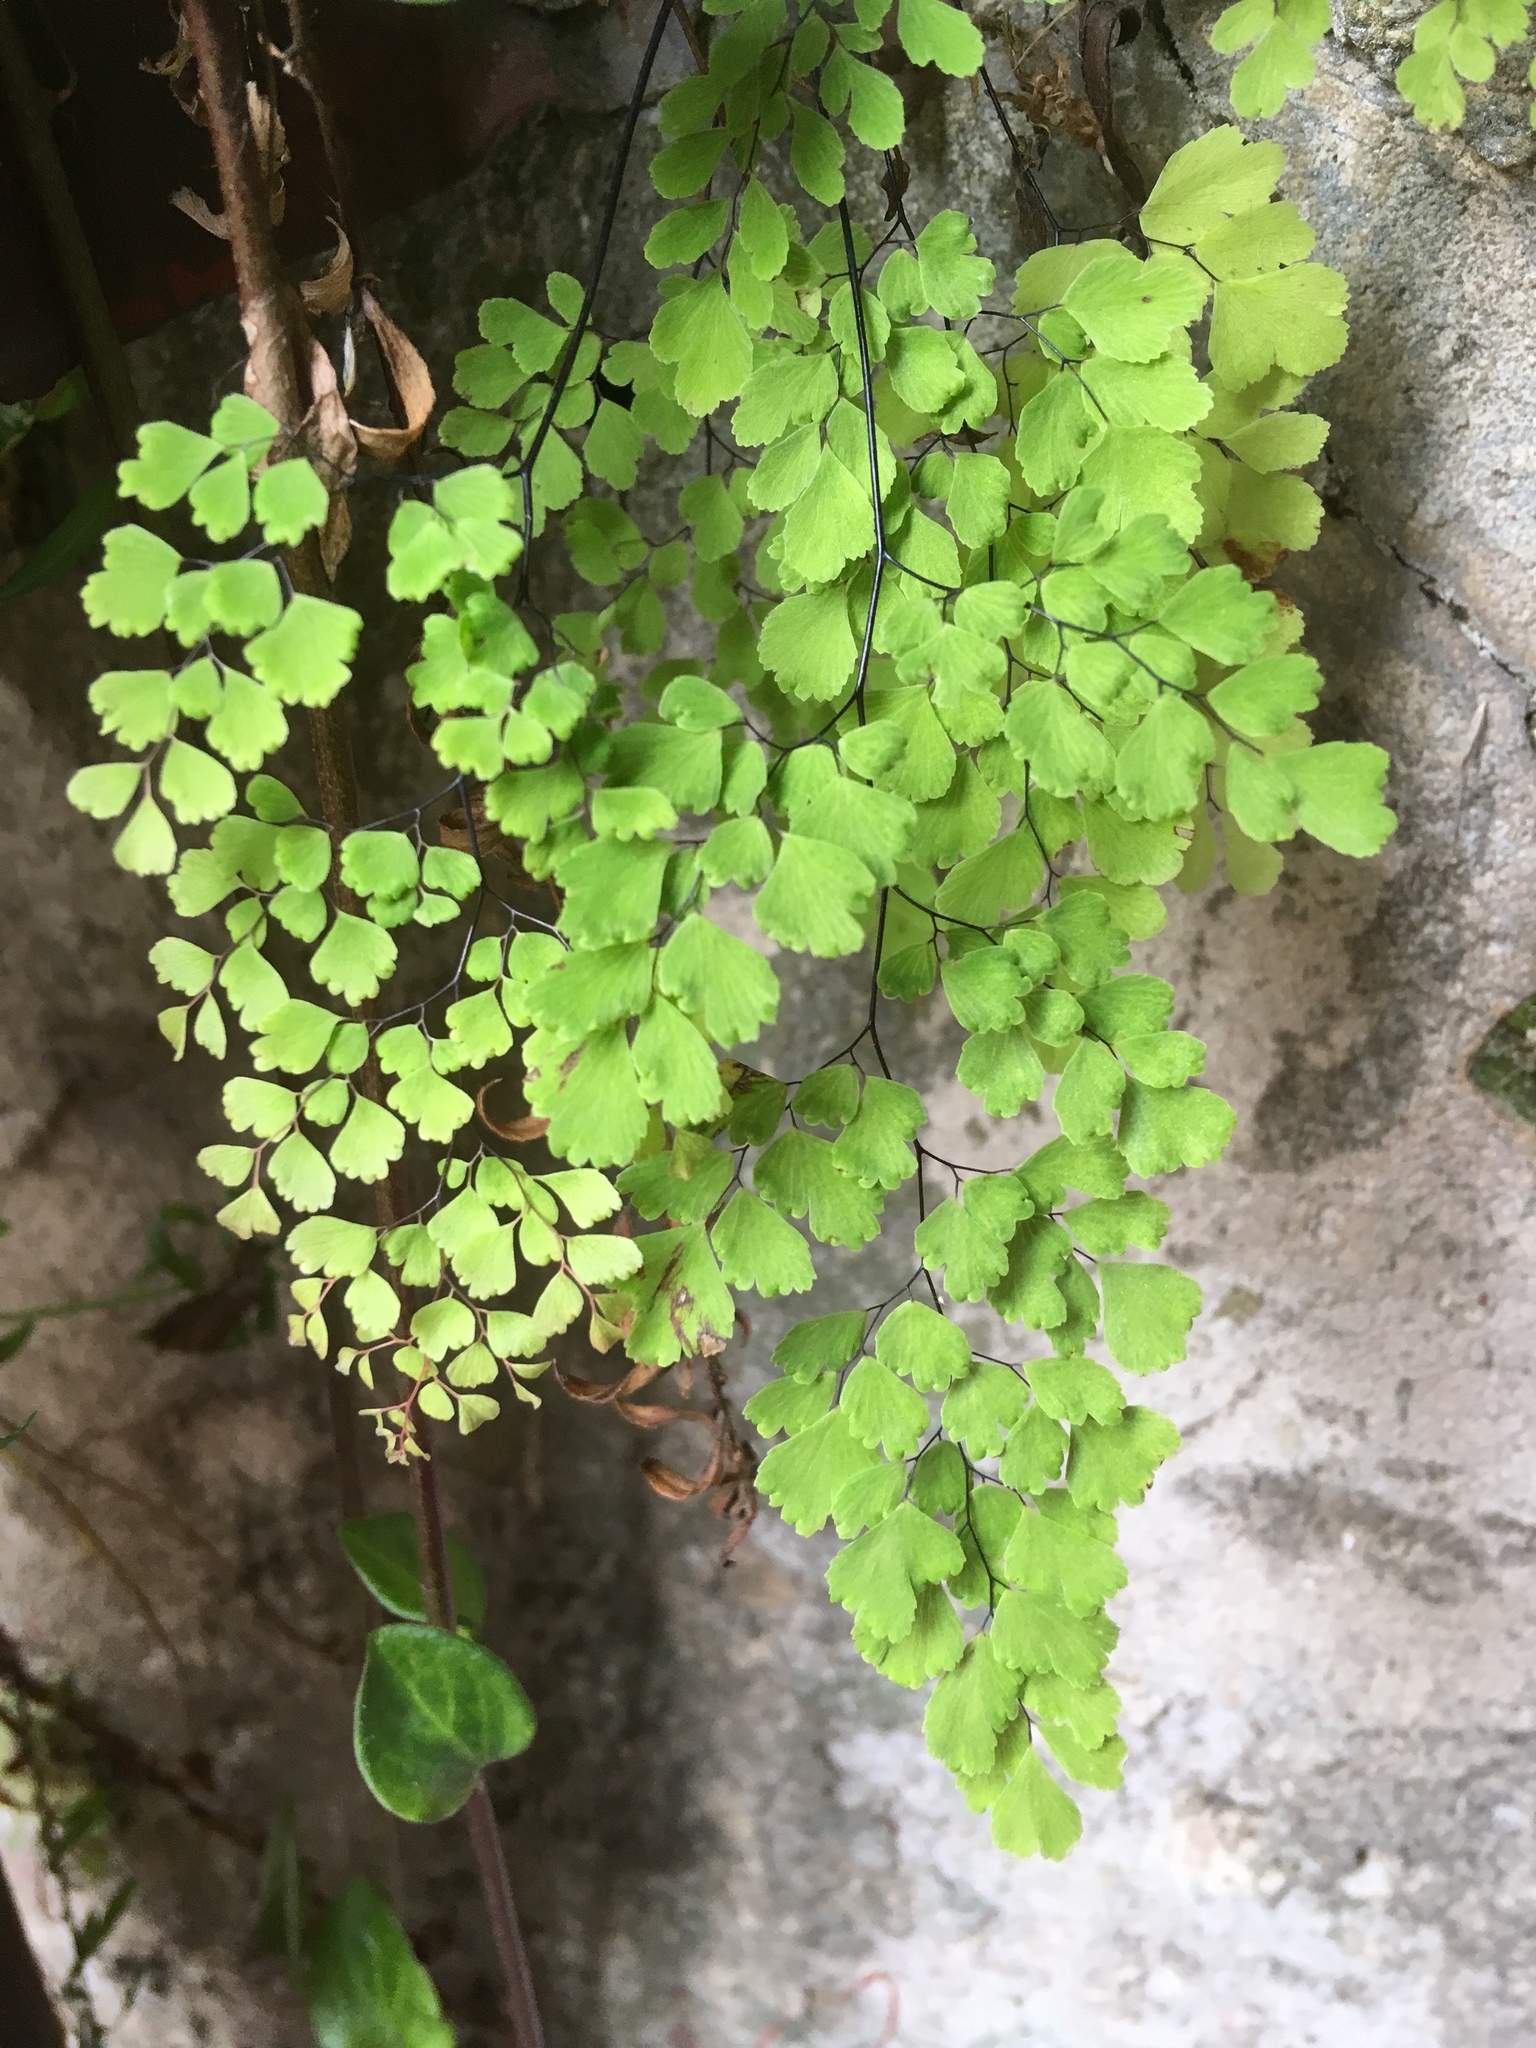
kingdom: Plantae
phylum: Tracheophyta
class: Polypodiopsida
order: Polypodiales
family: Pteridaceae
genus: Adiantum
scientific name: Adiantum raddianum
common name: Delta maidenhair fern
